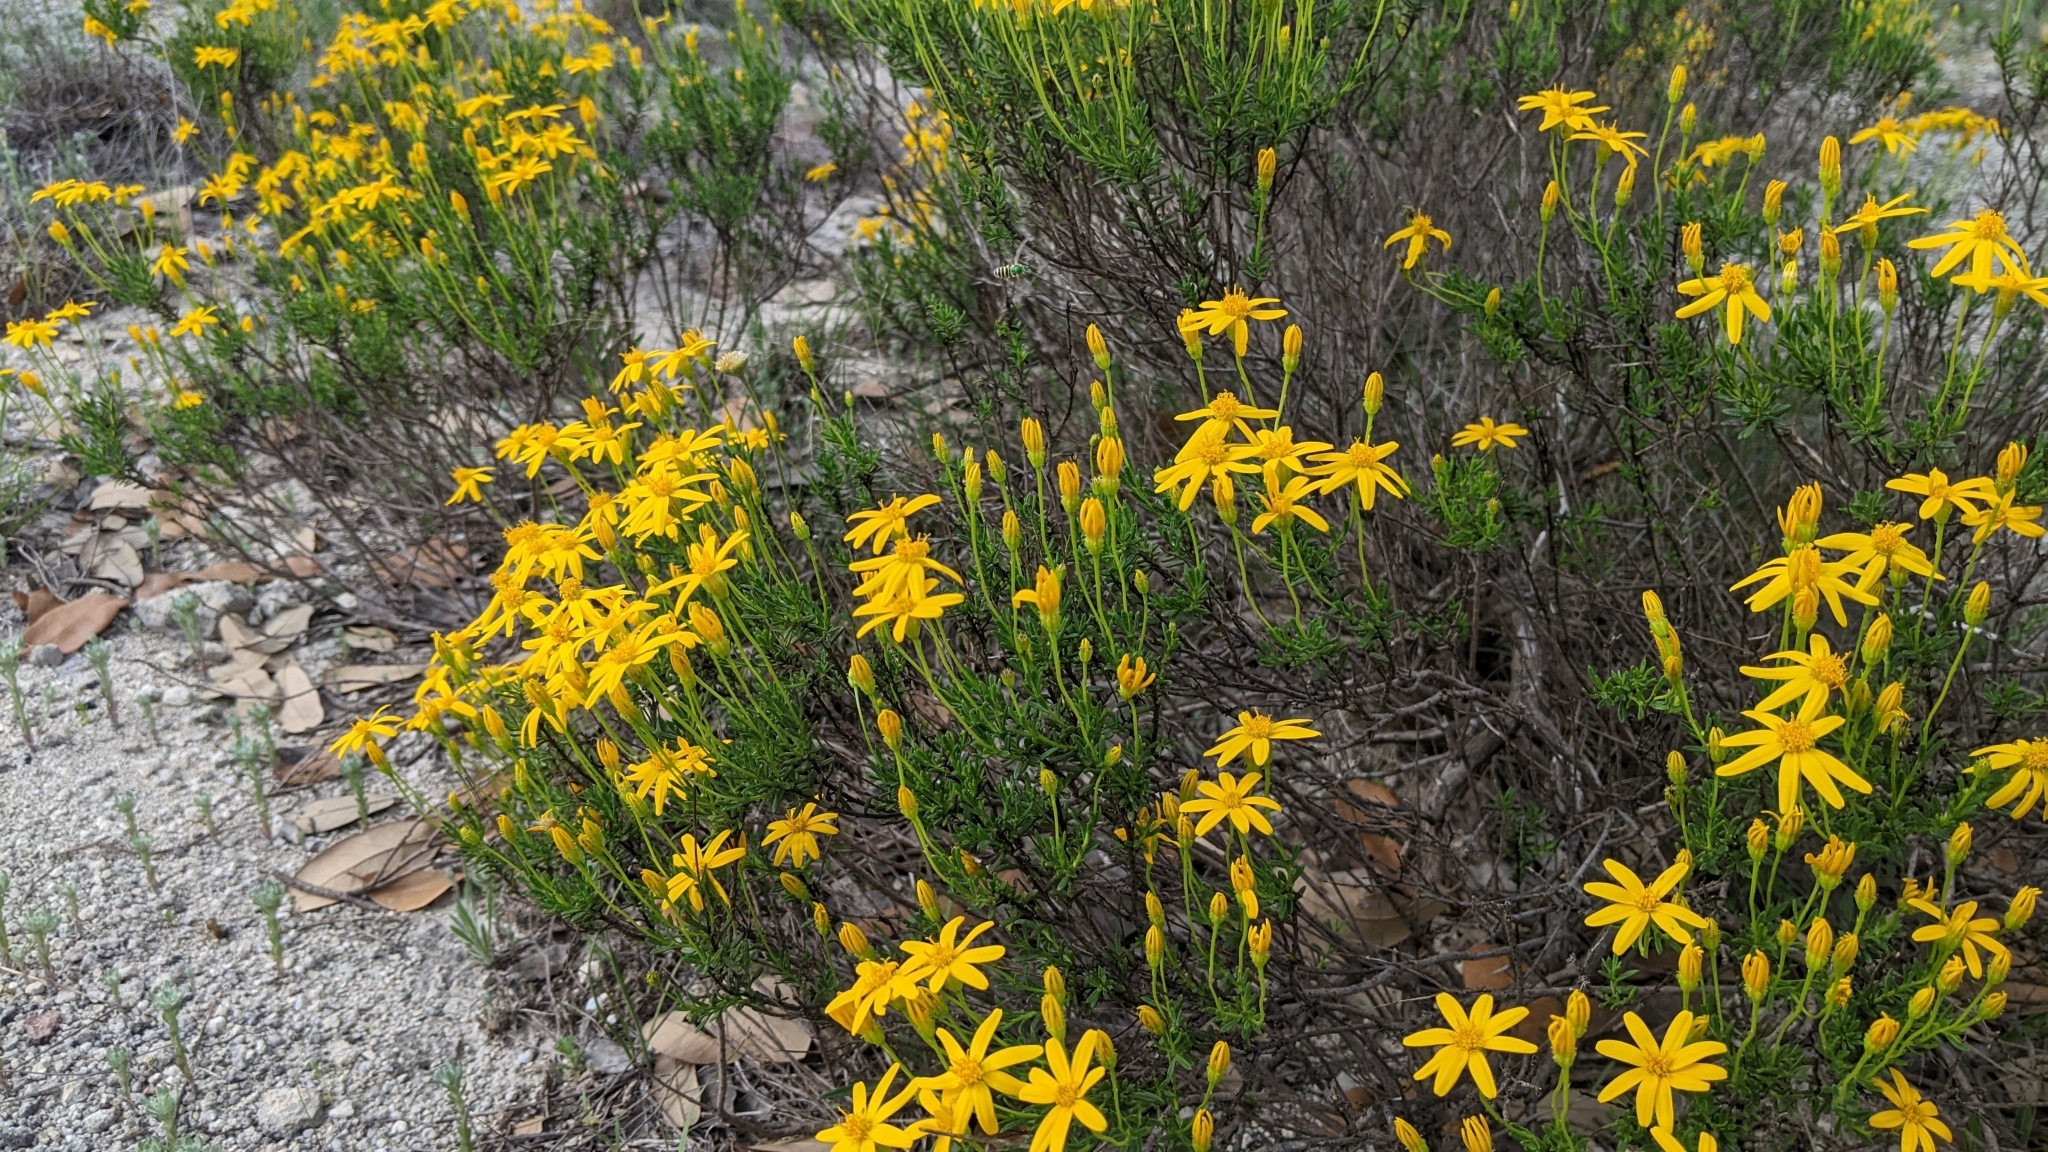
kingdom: Plantae
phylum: Tracheophyta
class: Magnoliopsida
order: Asterales
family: Asteraceae
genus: Chrysactinia
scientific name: Chrysactinia mexicana
